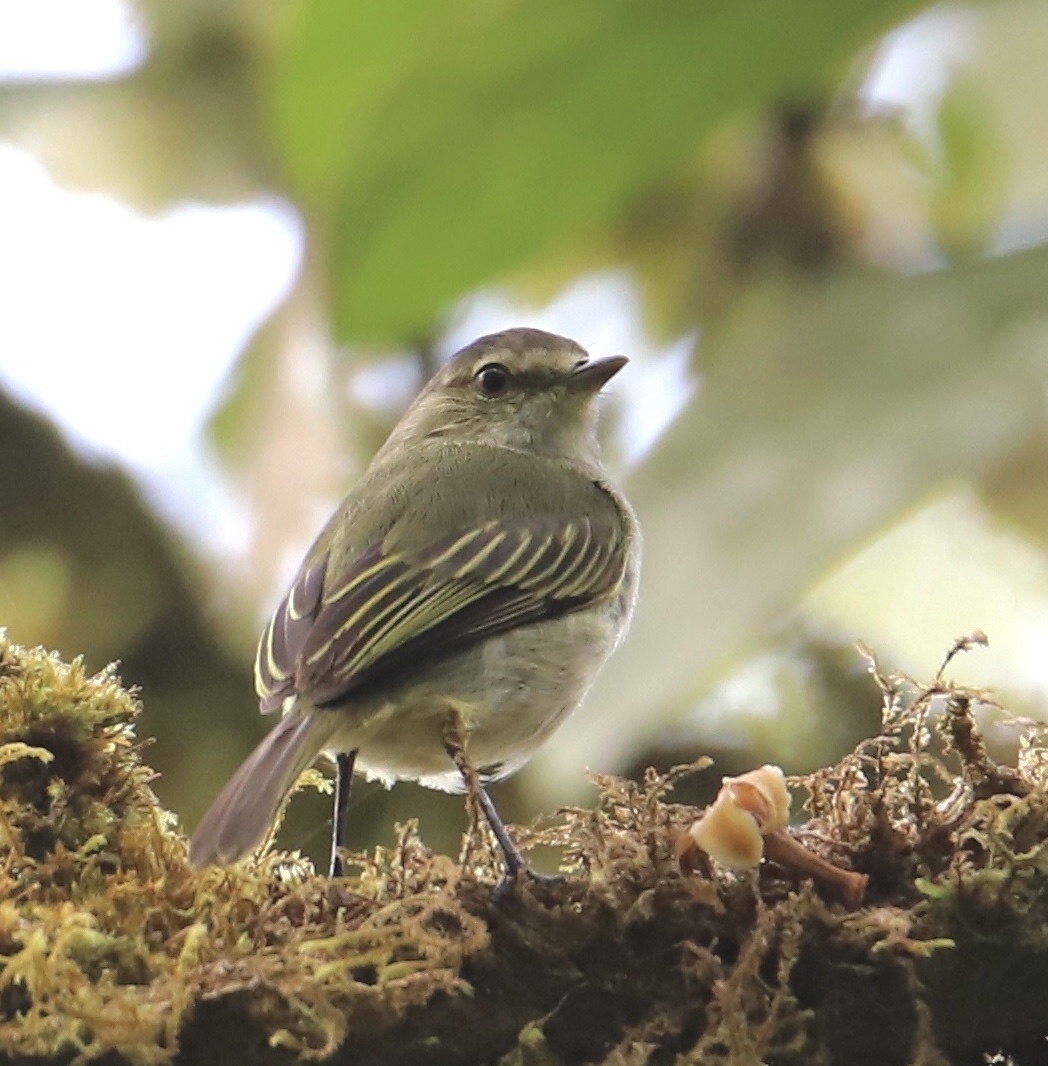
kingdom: Animalia
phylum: Chordata
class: Aves
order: Passeriformes
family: Tyrannidae
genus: Zimmerius
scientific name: Zimmerius vilissimus
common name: Paltry tyrannulet
